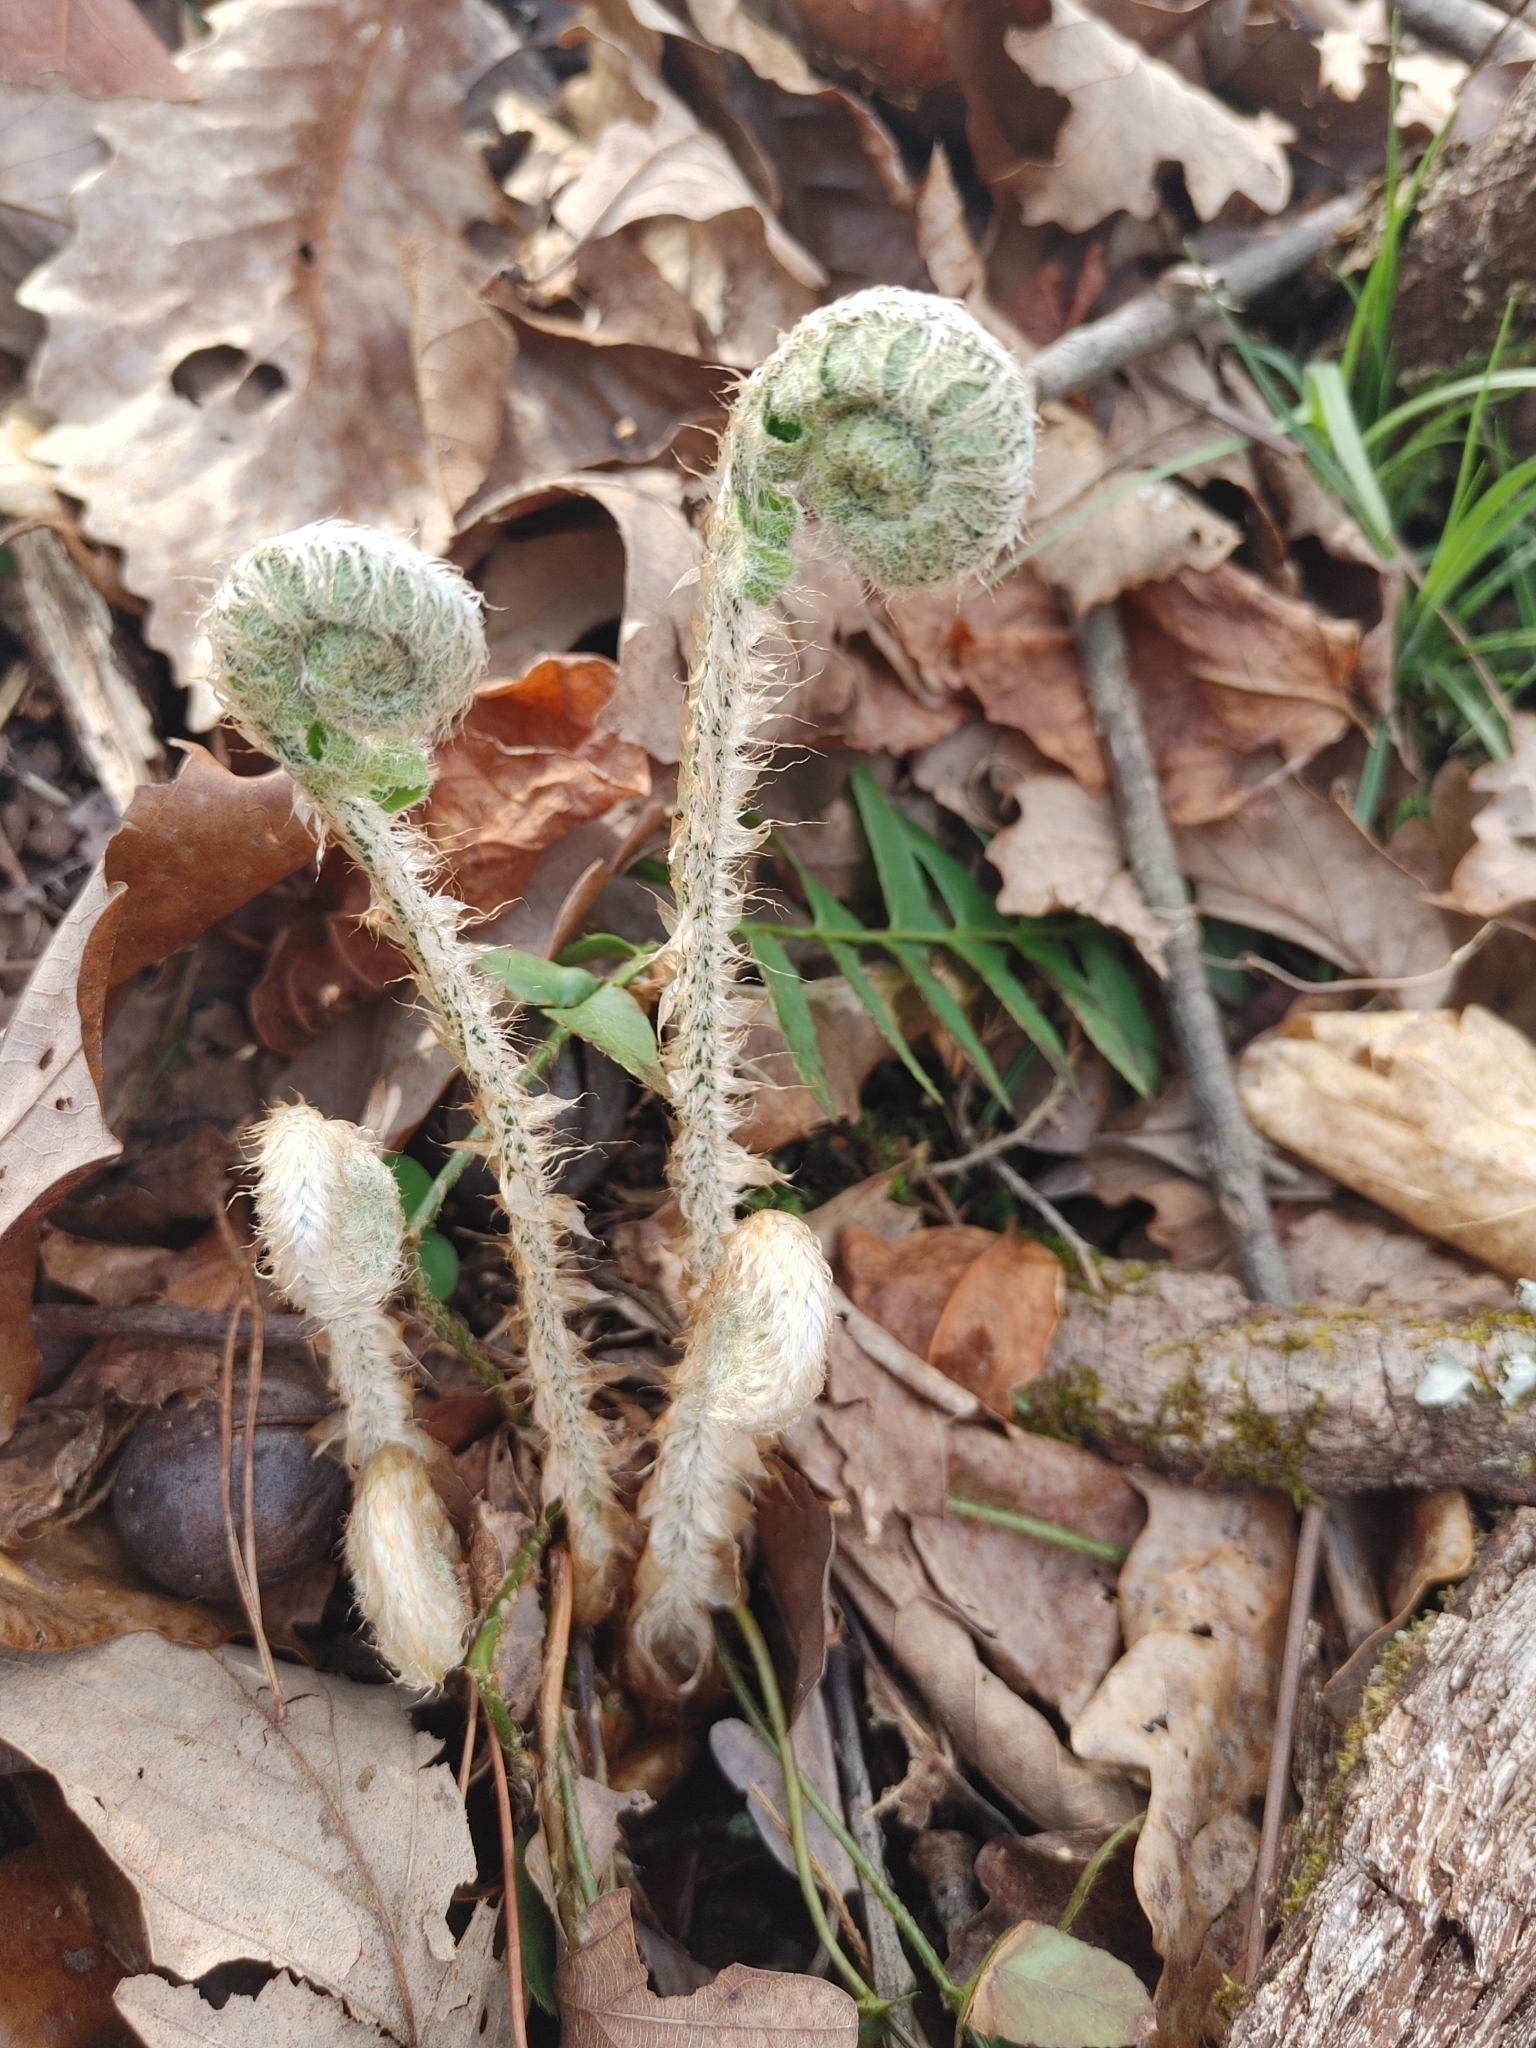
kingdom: Plantae
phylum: Tracheophyta
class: Polypodiopsida
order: Polypodiales
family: Dryopteridaceae
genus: Polystichum
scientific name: Polystichum acrostichoides
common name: Christmas fern
